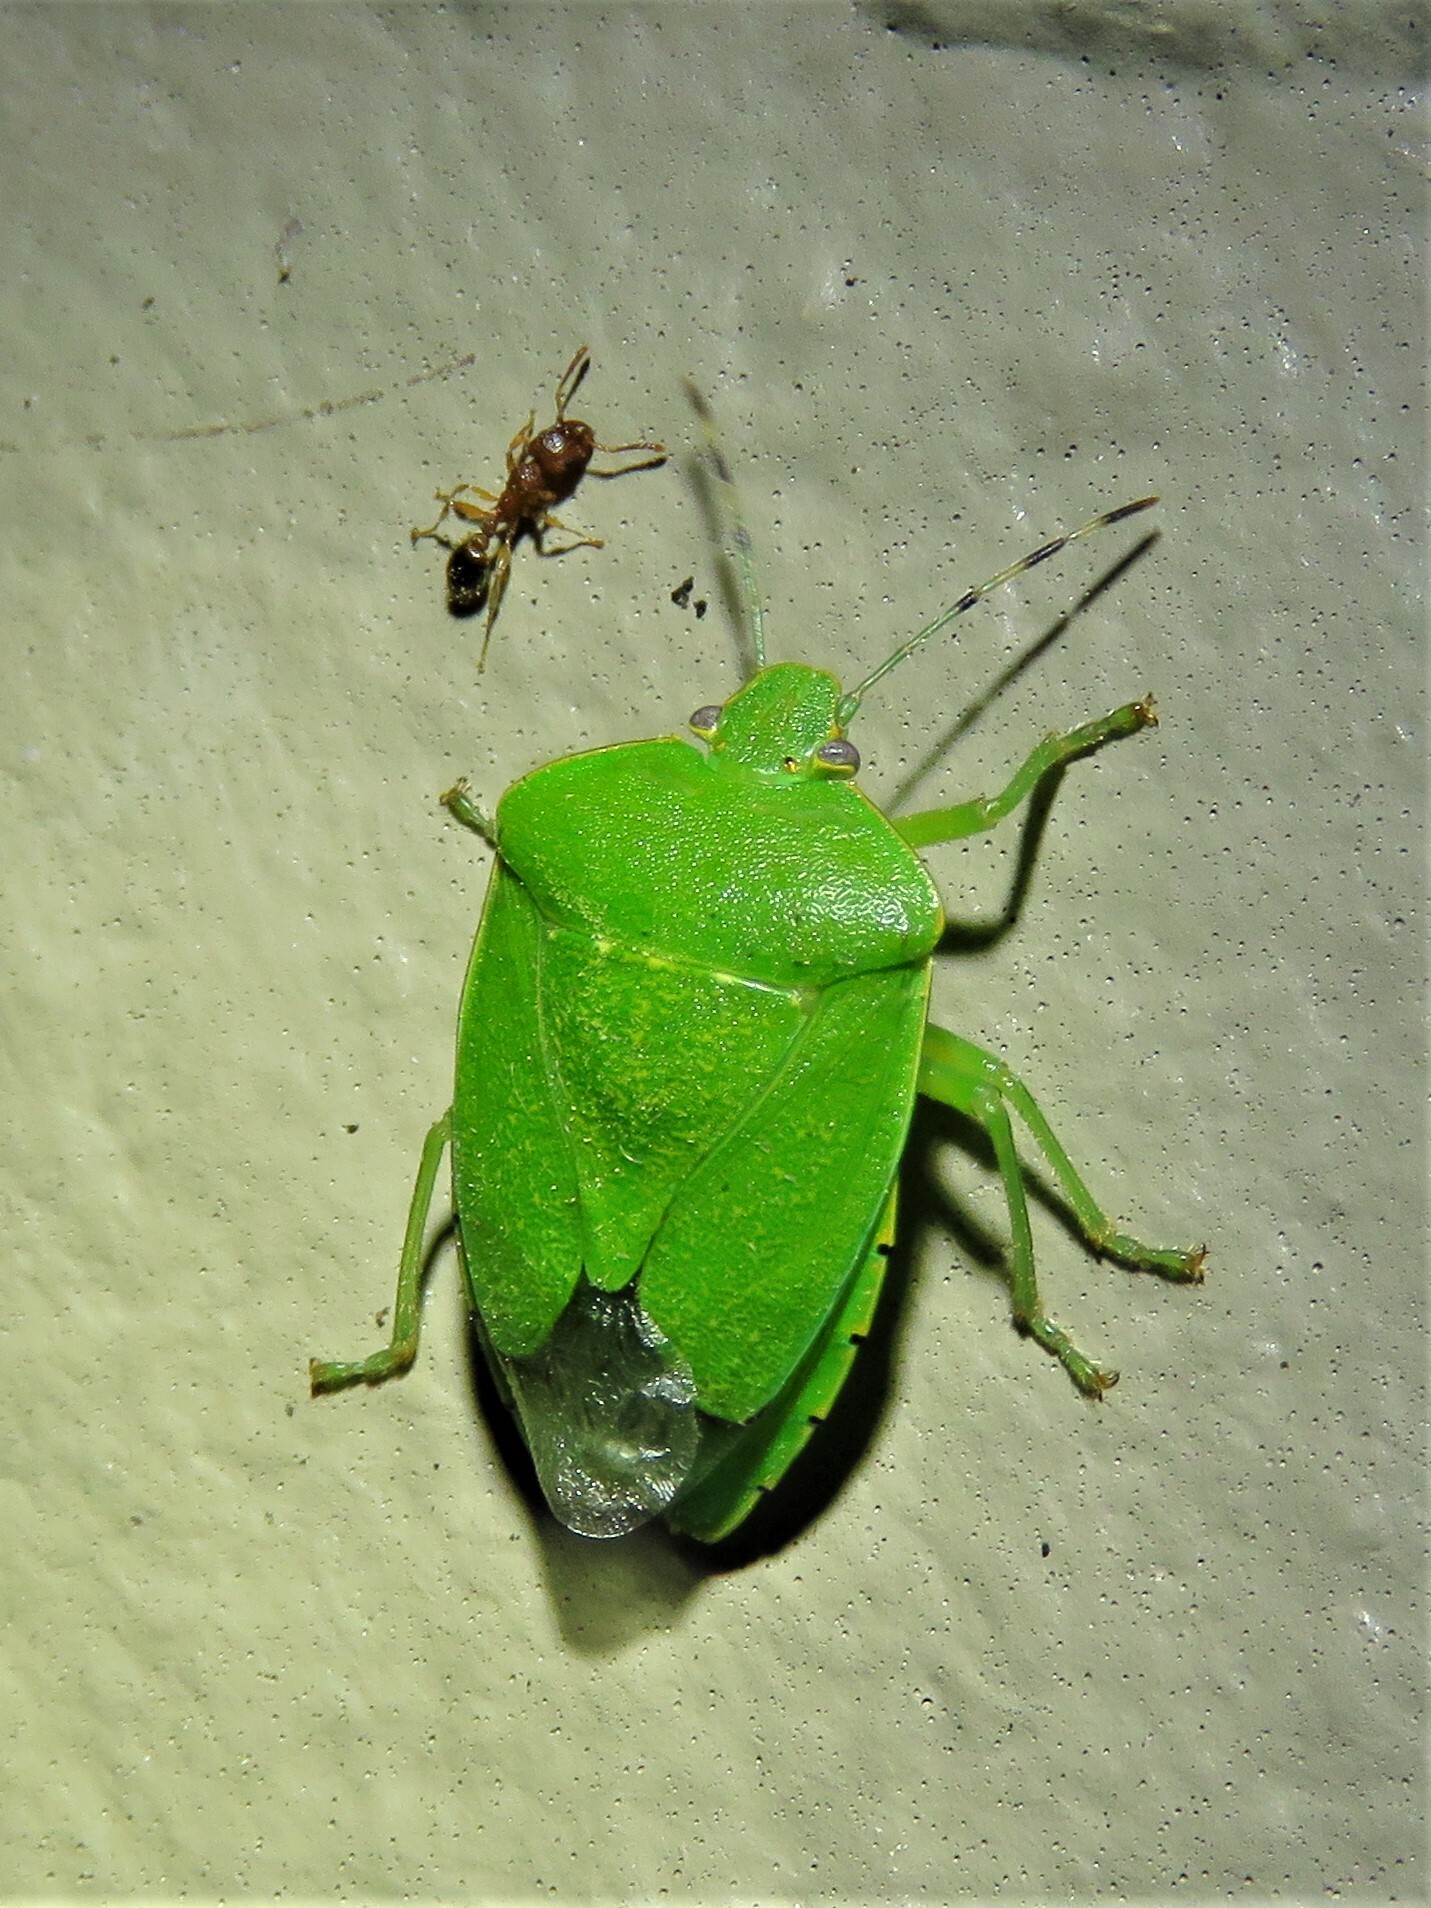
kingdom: Animalia
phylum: Arthropoda
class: Insecta
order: Hemiptera
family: Pentatomidae
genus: Chinavia
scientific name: Chinavia hilaris
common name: Green stink bug
